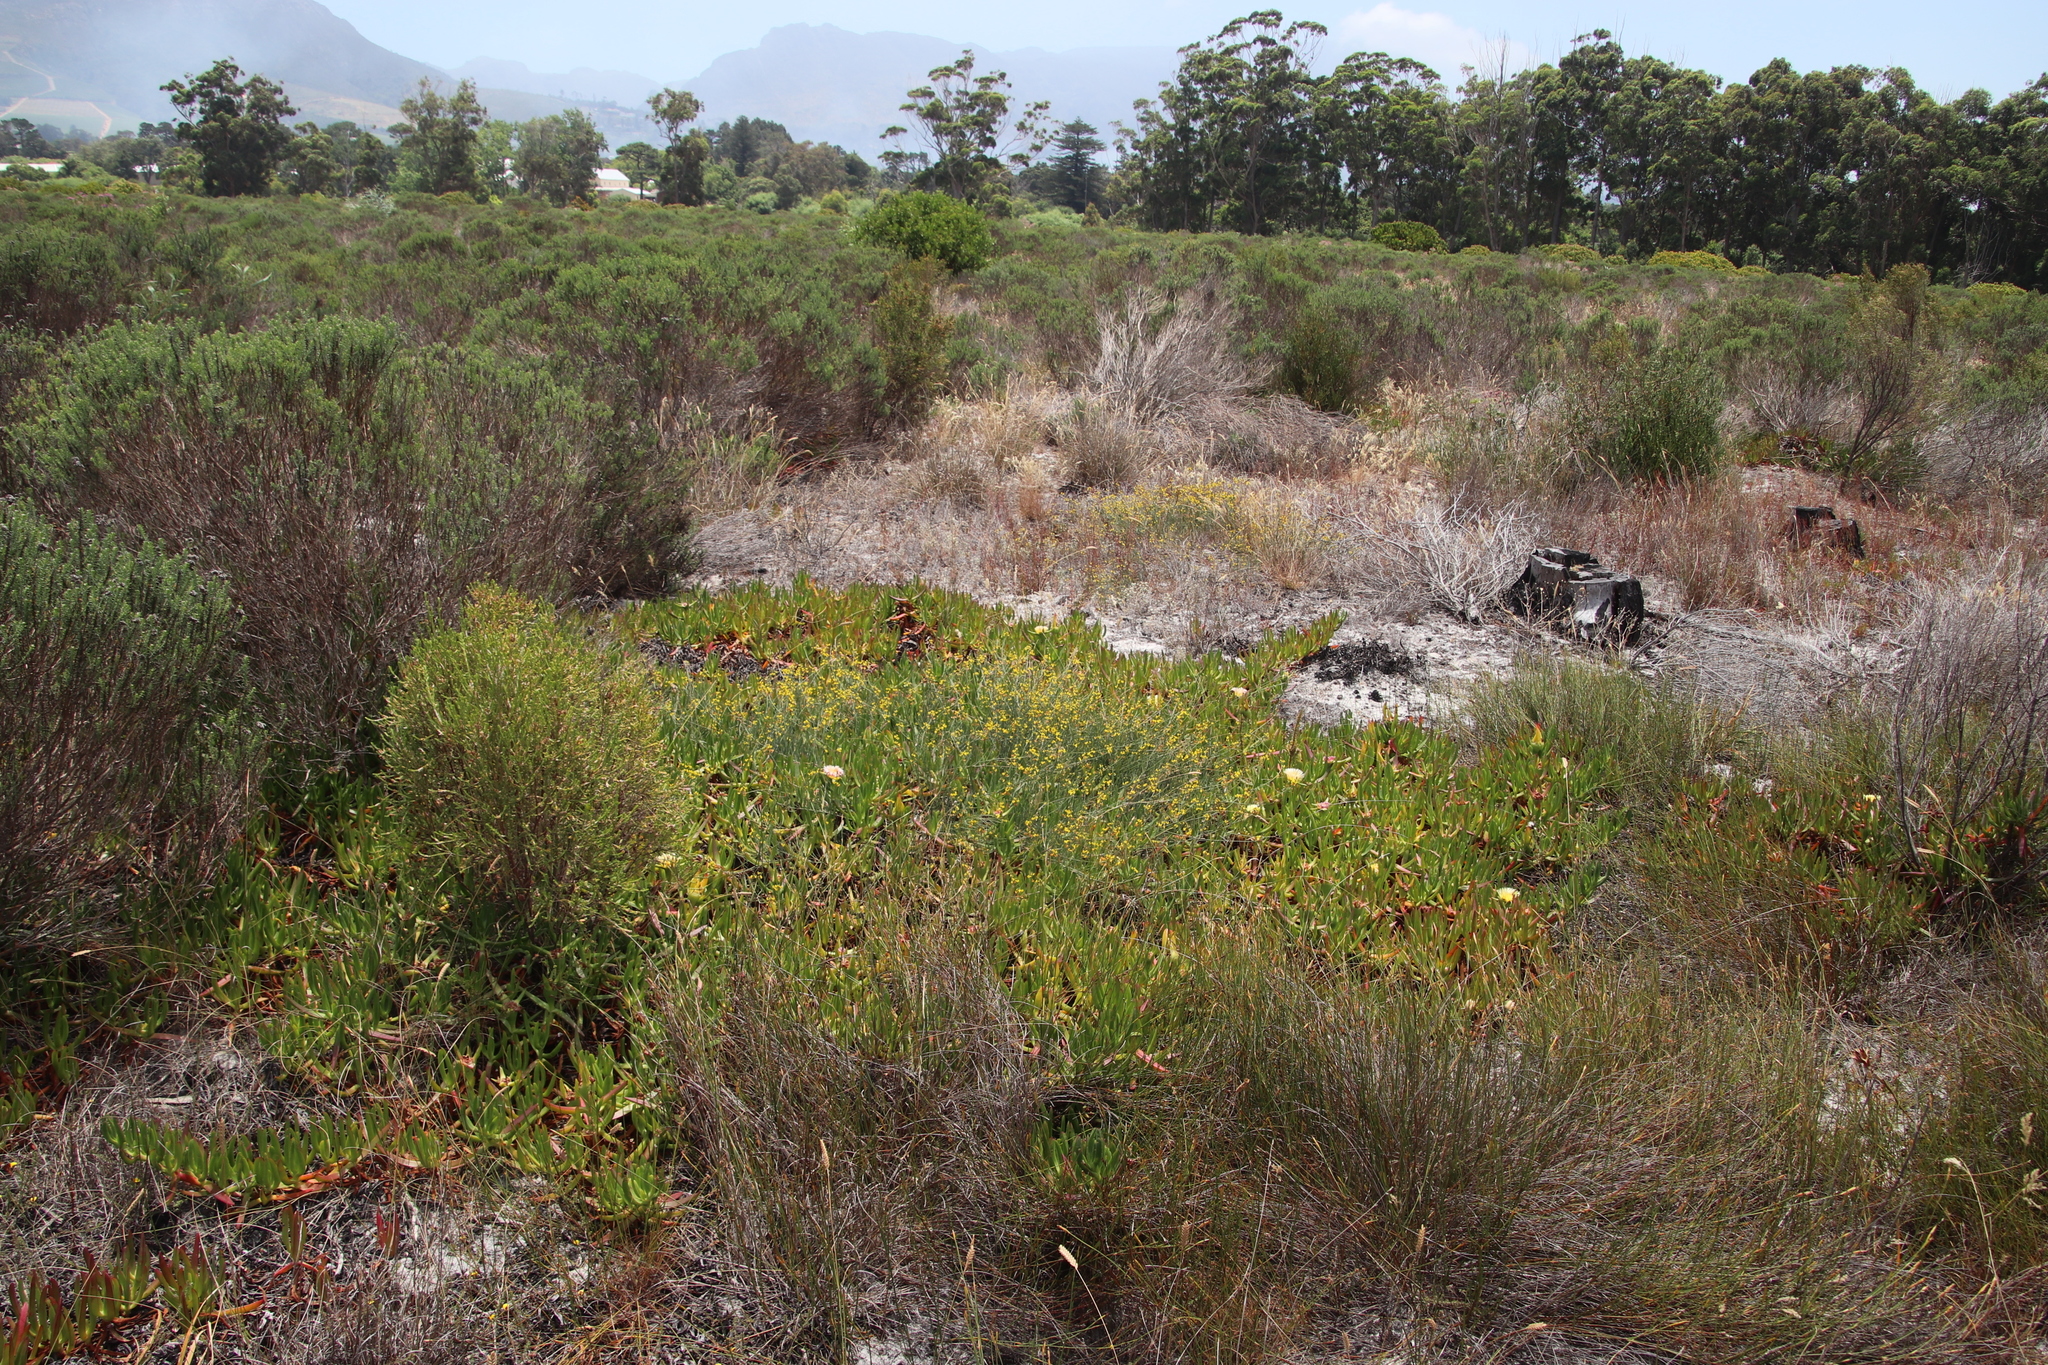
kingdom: Plantae
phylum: Tracheophyta
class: Magnoliopsida
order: Fabales
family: Fabaceae
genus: Lebeckia
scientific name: Lebeckia contaminata
